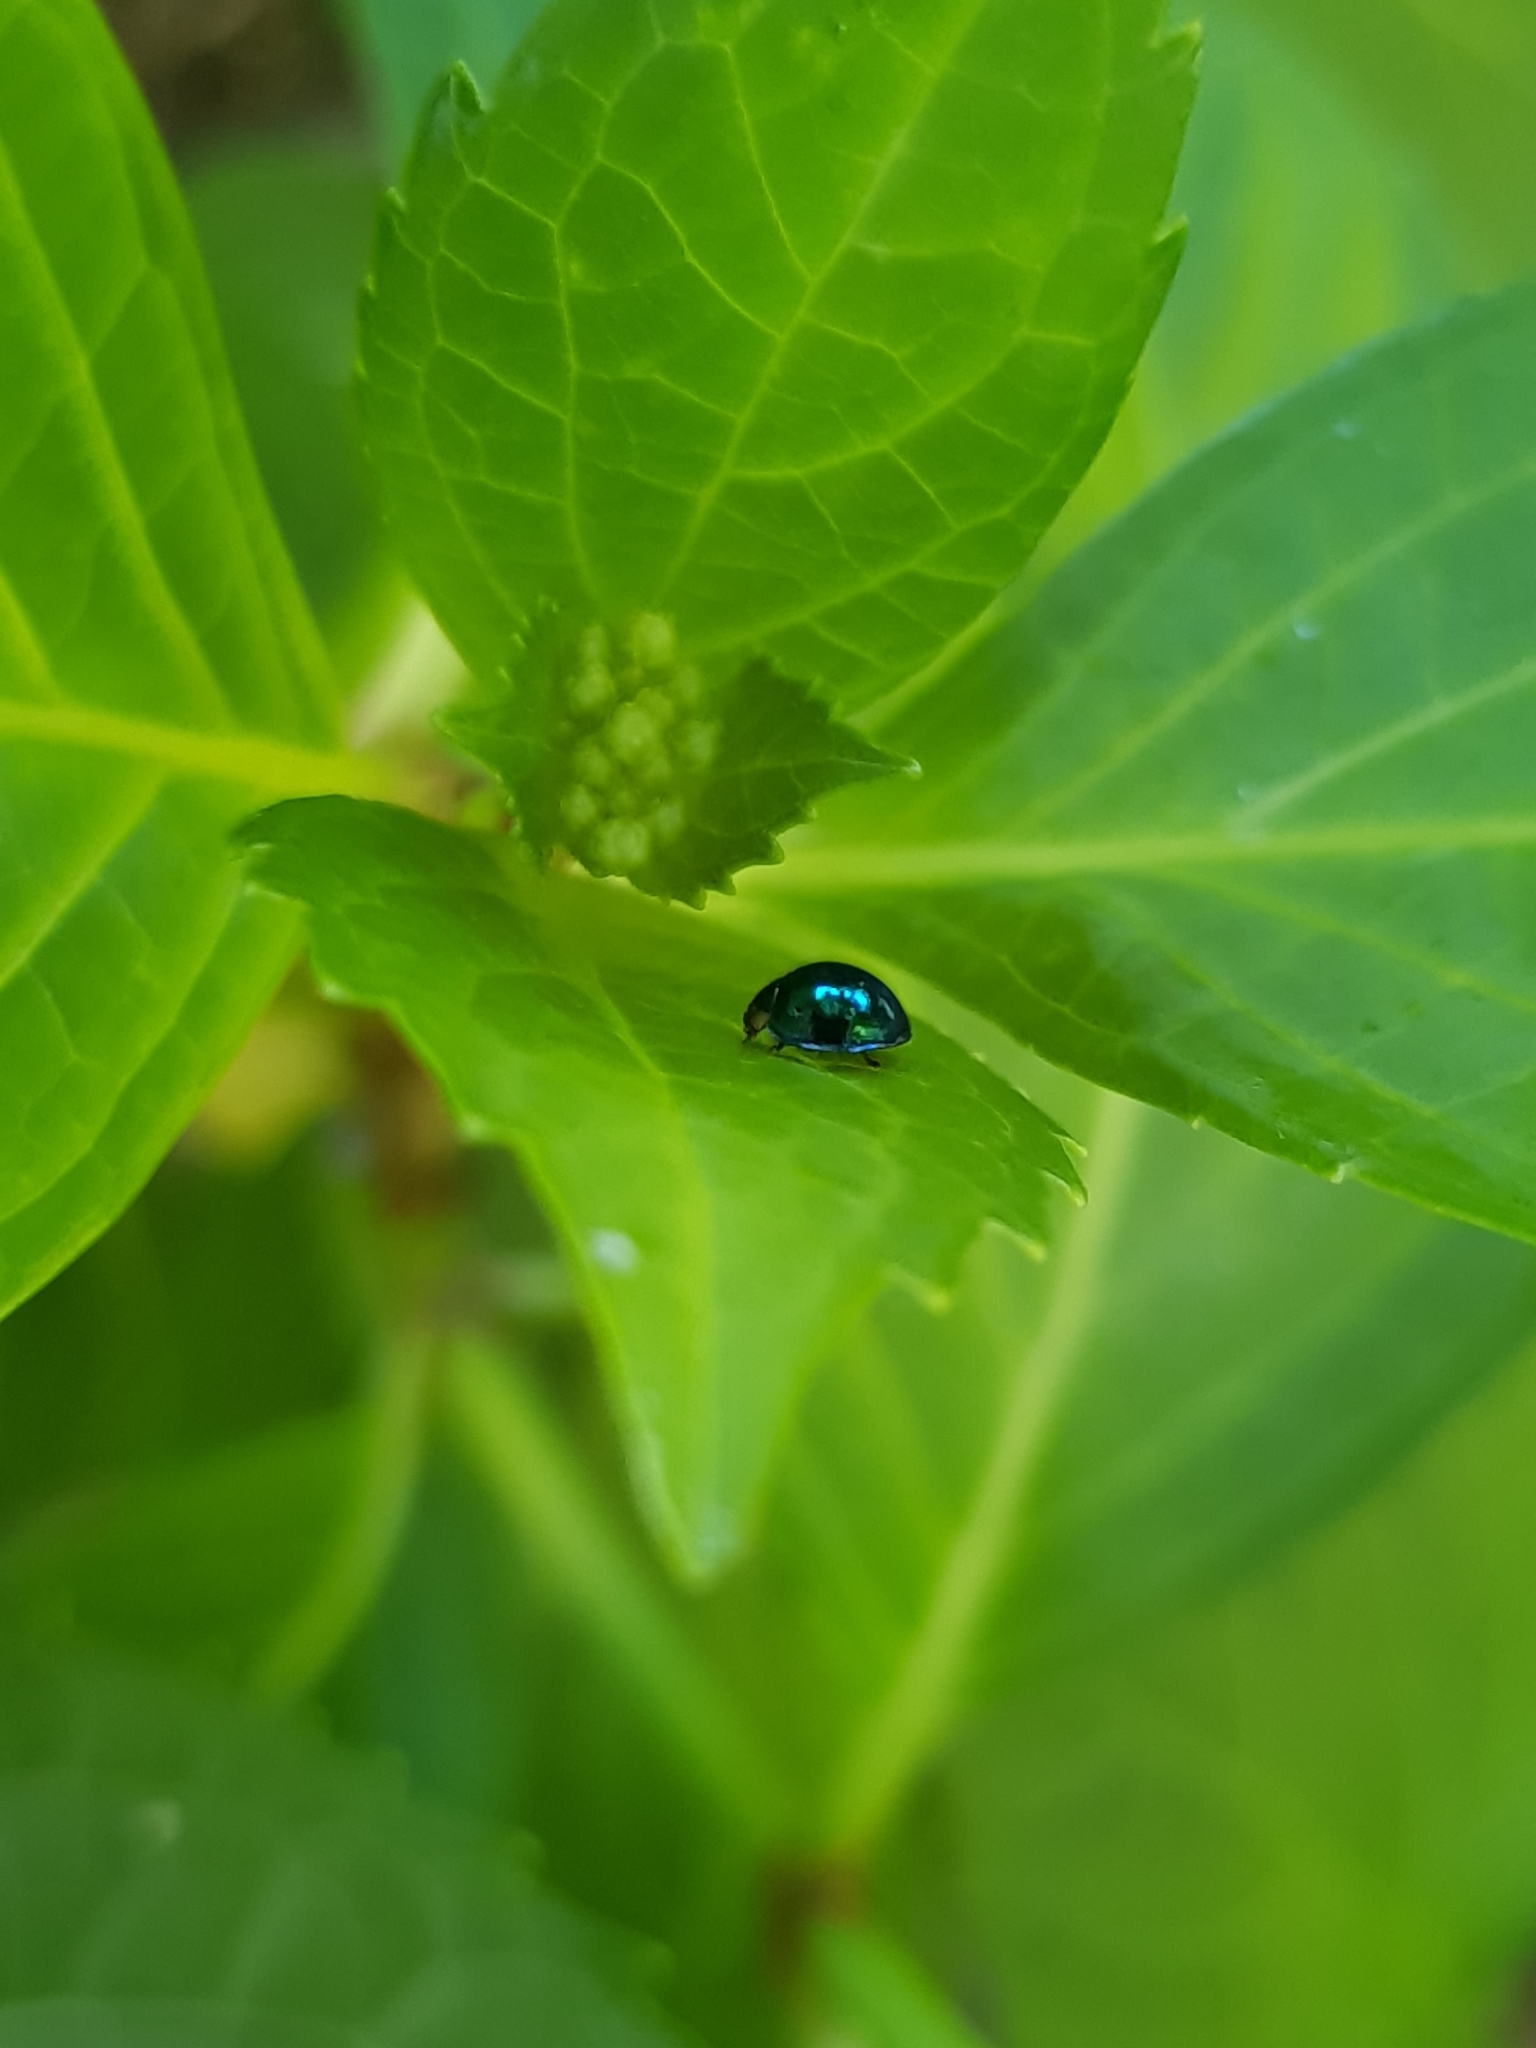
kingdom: Animalia
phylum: Arthropoda
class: Insecta
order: Coleoptera
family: Coccinellidae
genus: Halmus
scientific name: Halmus chalybeus
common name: Steel blue ladybird beetle
